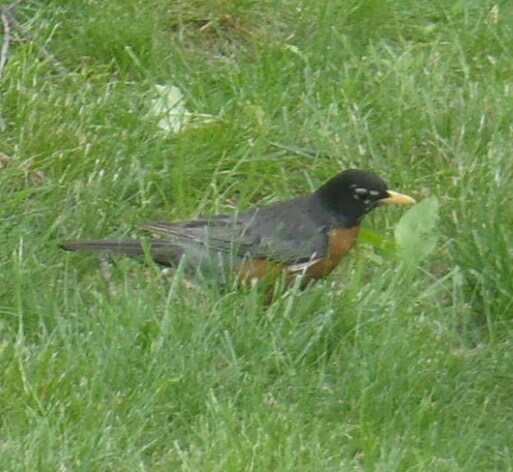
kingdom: Animalia
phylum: Chordata
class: Aves
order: Passeriformes
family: Turdidae
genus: Turdus
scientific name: Turdus migratorius
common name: American robin
